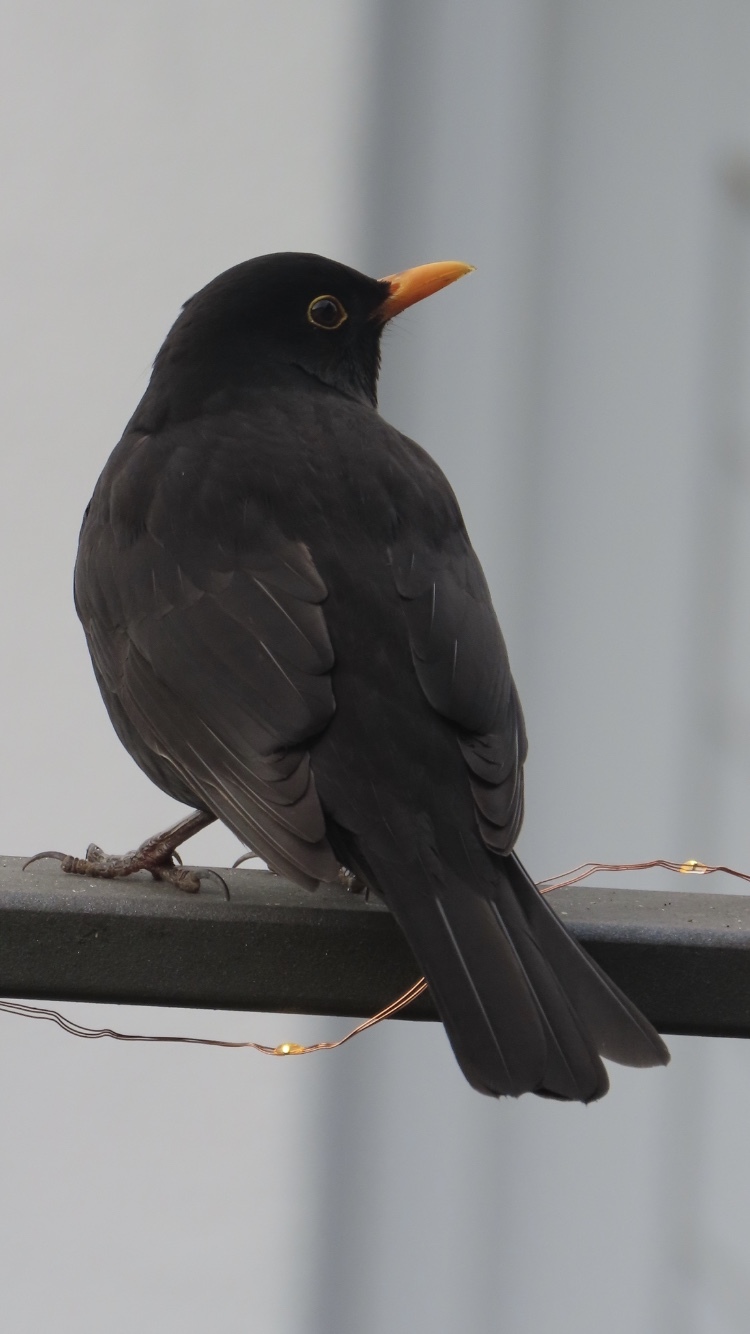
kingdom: Animalia
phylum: Chordata
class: Aves
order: Passeriformes
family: Turdidae
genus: Turdus
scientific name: Turdus merula
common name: Common blackbird
